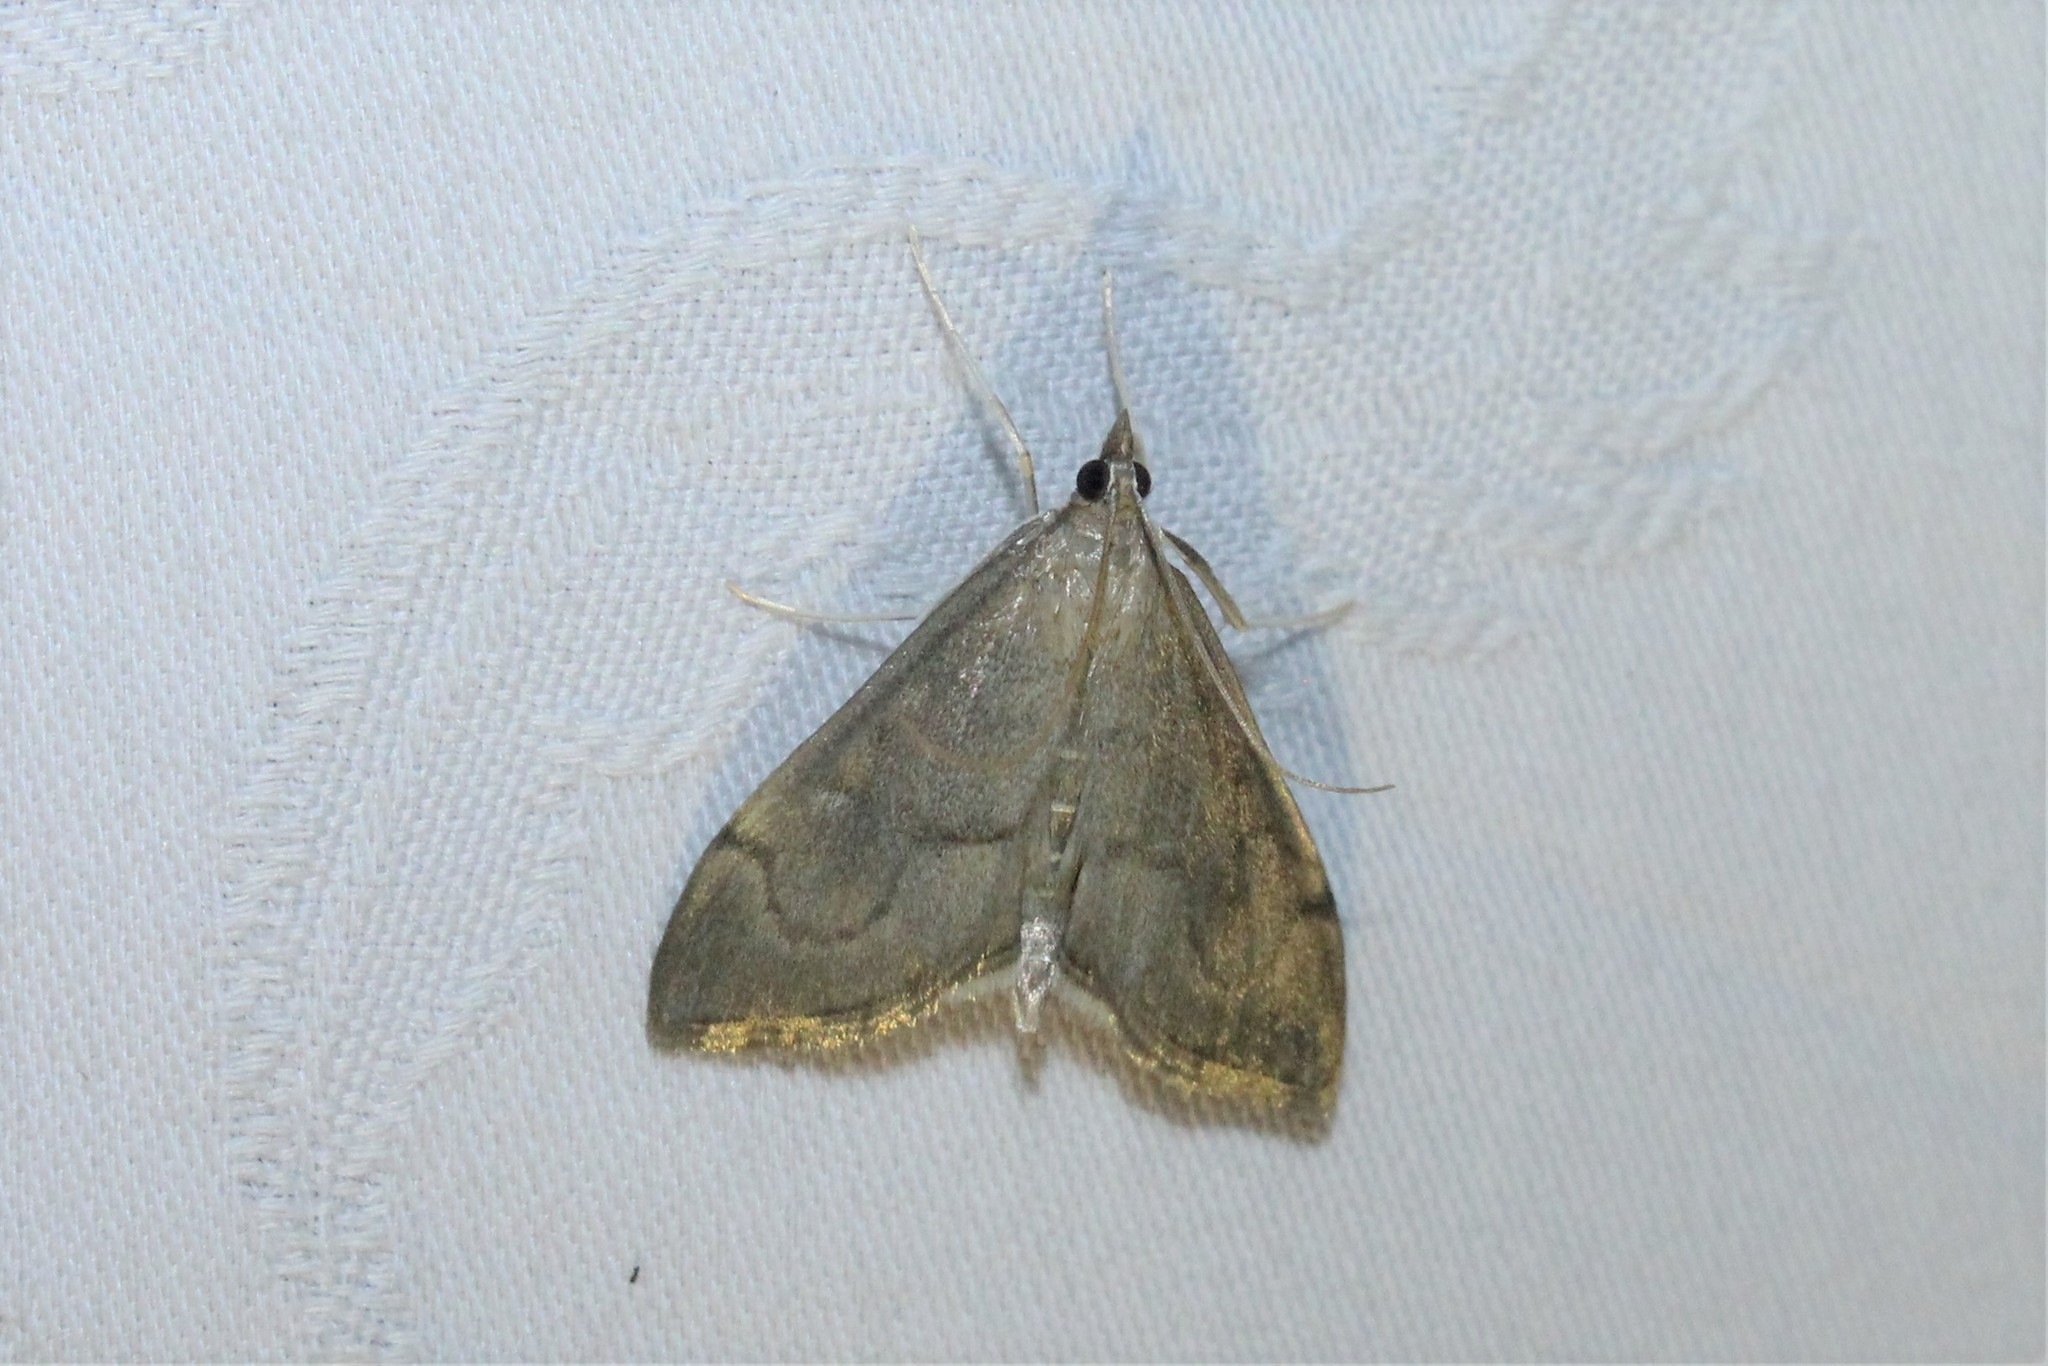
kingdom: Animalia
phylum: Arthropoda
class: Insecta
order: Lepidoptera
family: Crambidae
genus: Anania
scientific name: Anania mysippusalis
